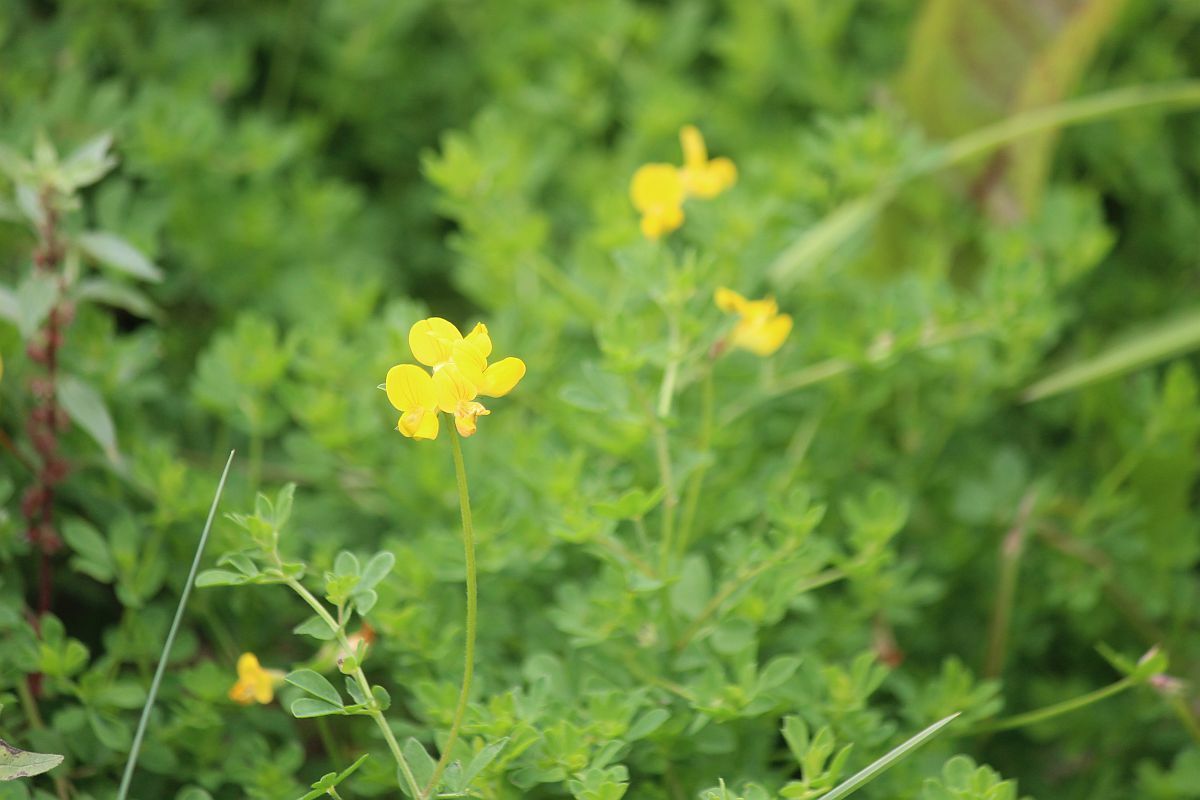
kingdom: Plantae
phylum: Tracheophyta
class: Magnoliopsida
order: Fabales
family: Fabaceae
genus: Lotus
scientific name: Lotus corniculatus
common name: Common bird's-foot-trefoil
